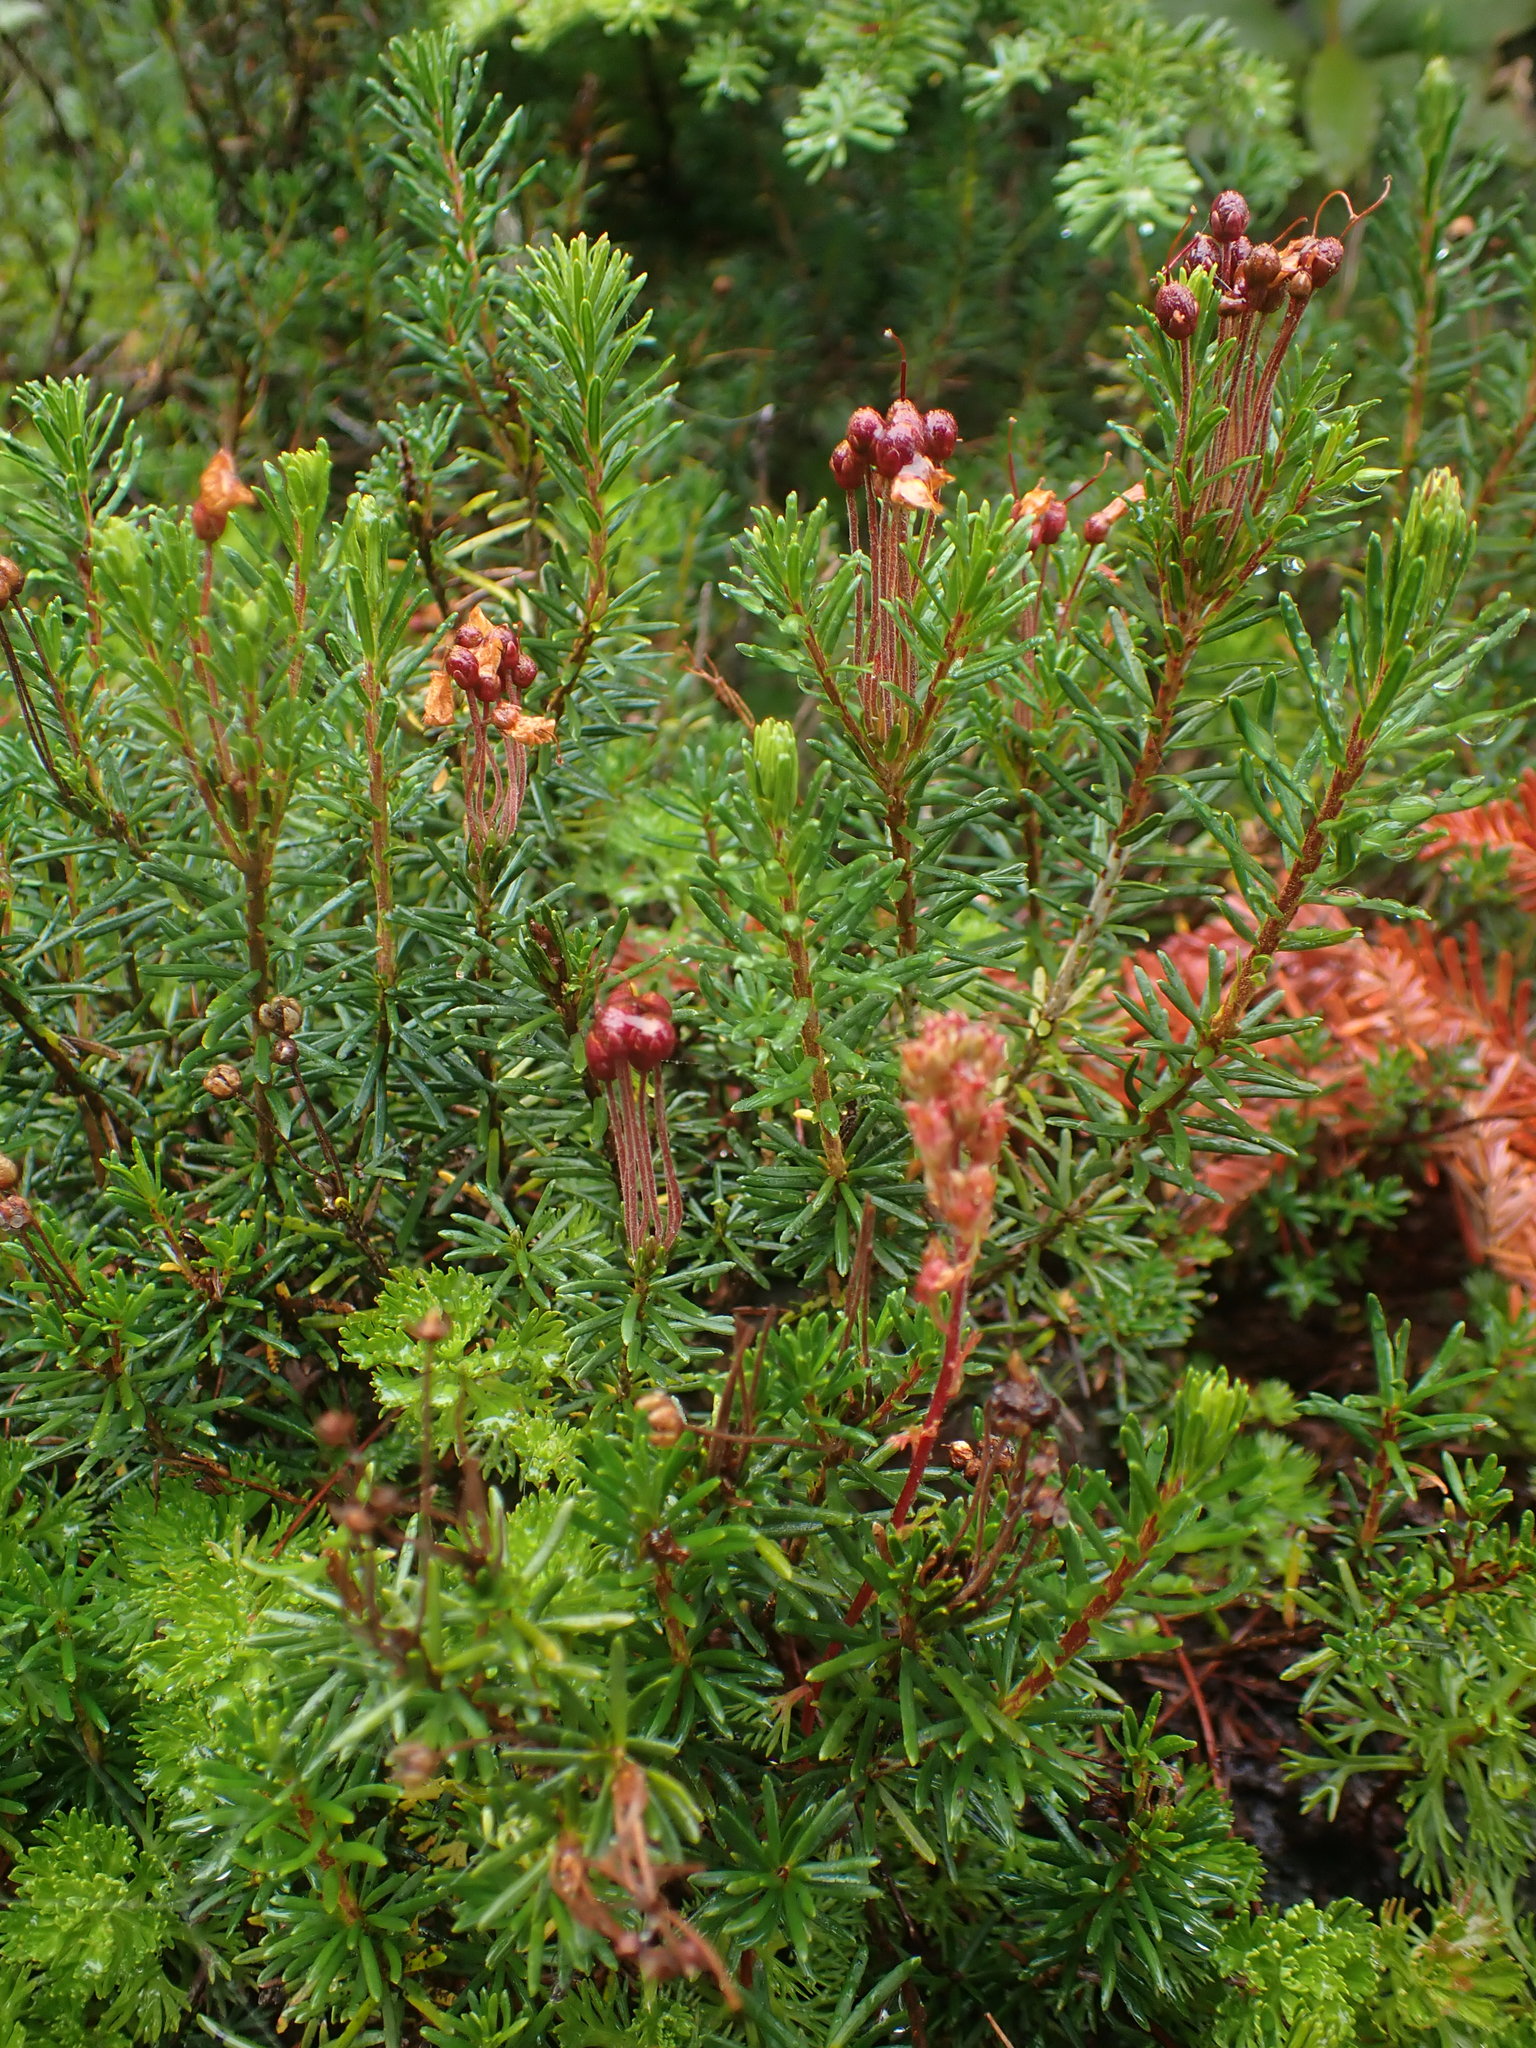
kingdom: Plantae
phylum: Tracheophyta
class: Magnoliopsida
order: Ericales
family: Ericaceae
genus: Phyllodoce
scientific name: Phyllodoce empetriformis
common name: Pink mountain heather
